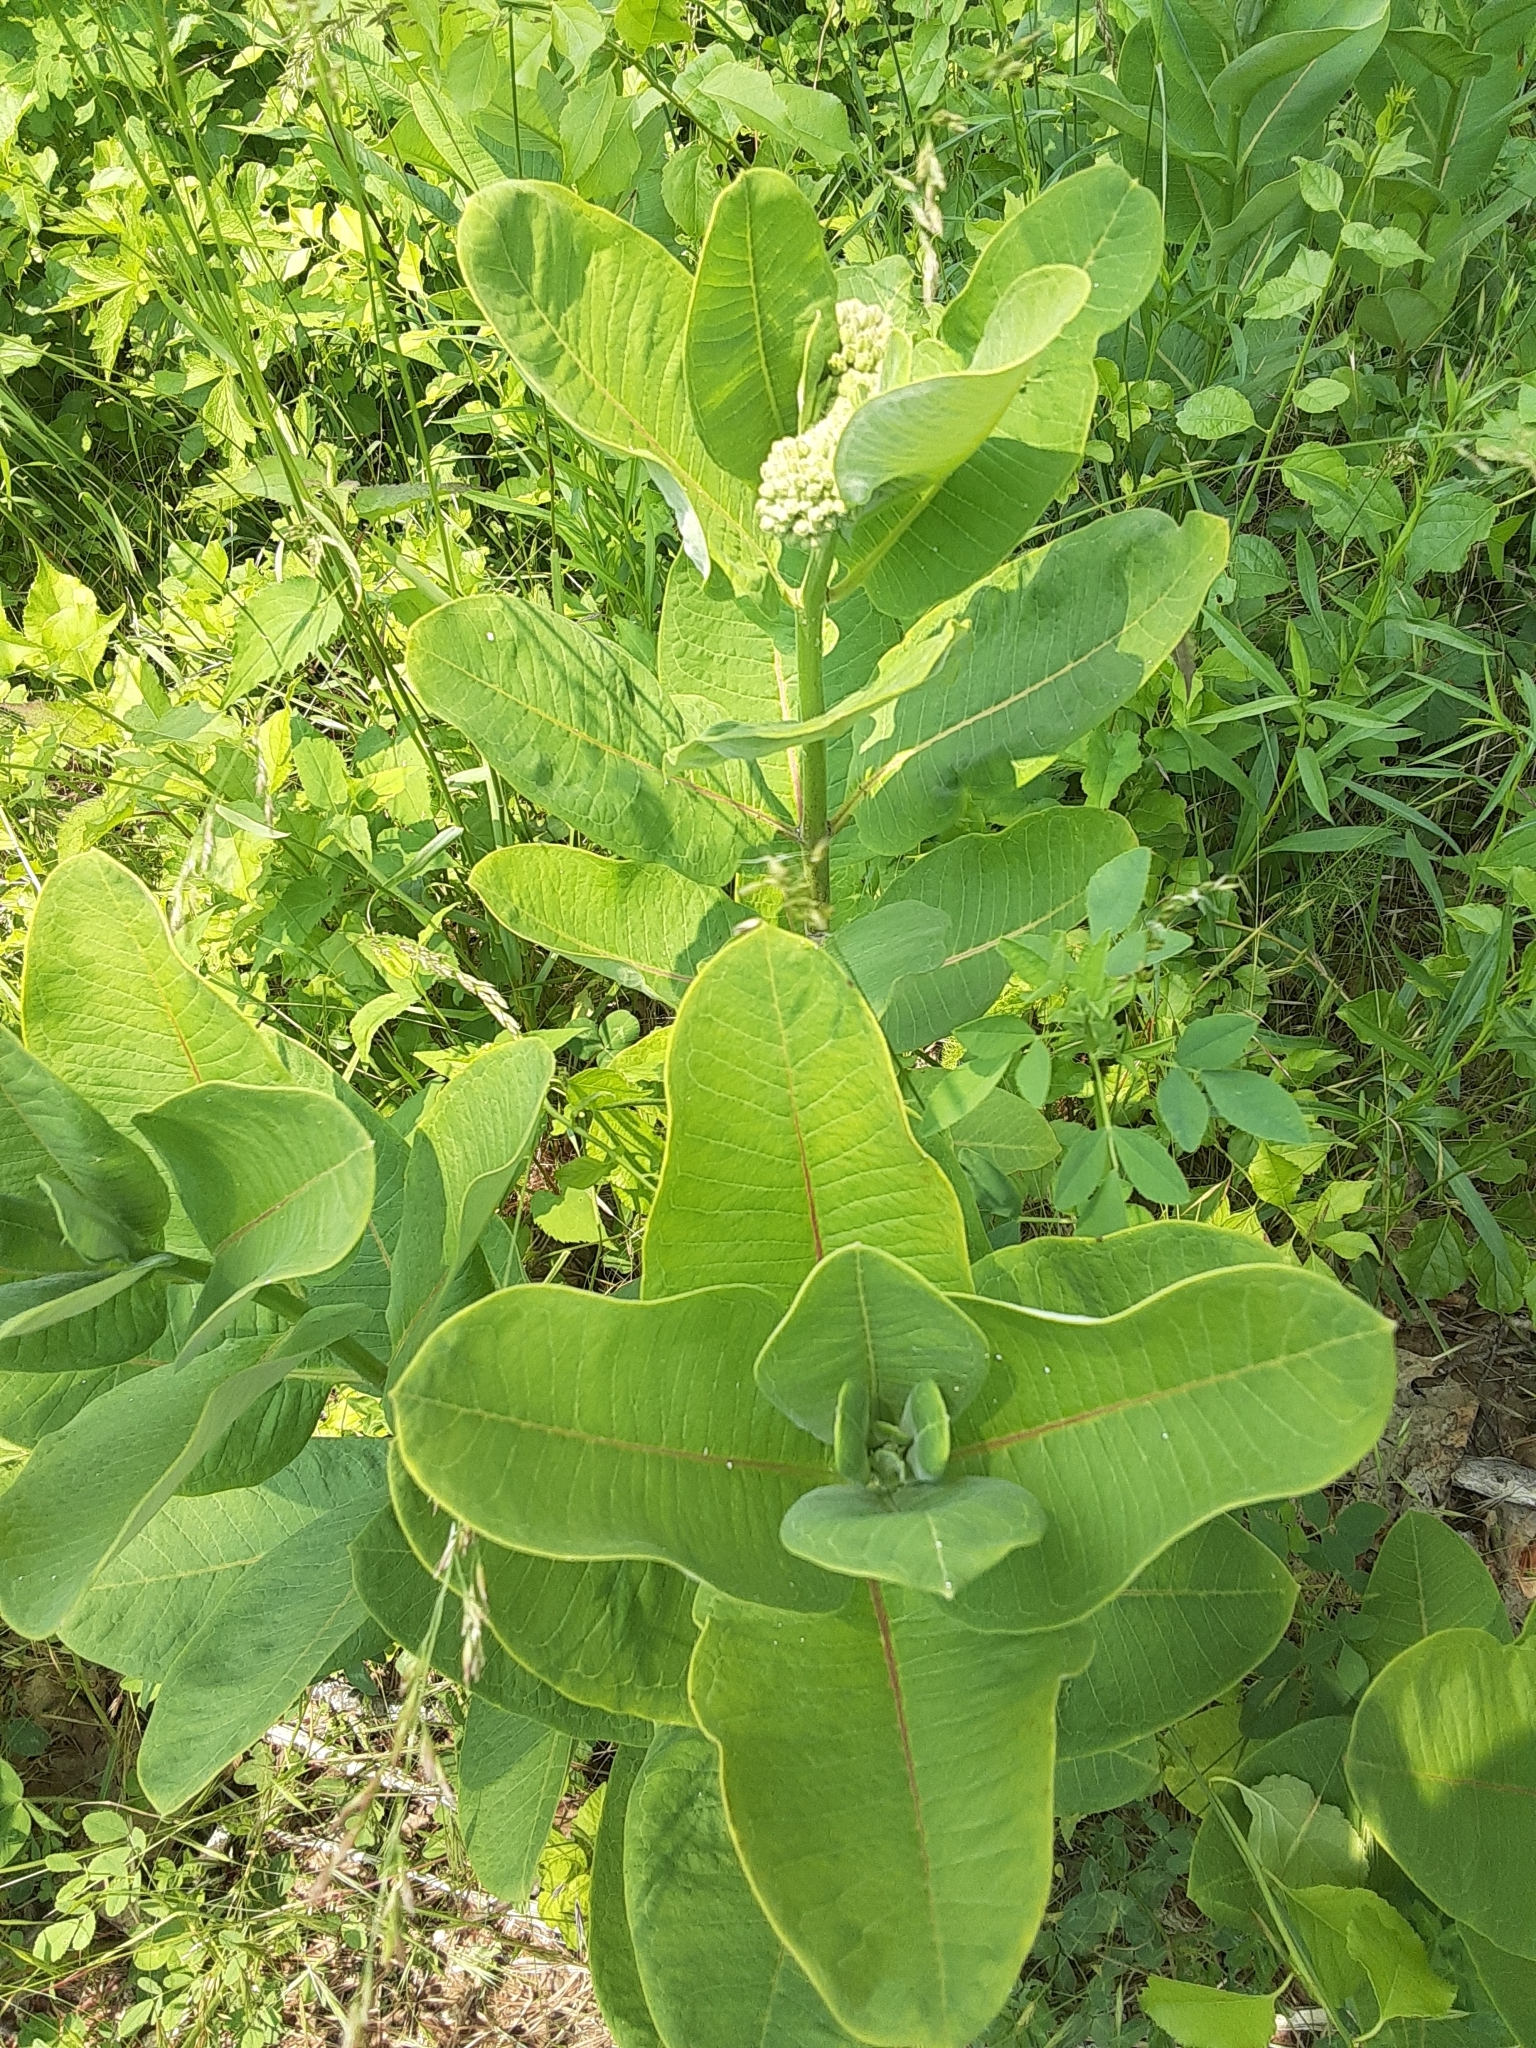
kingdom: Plantae
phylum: Tracheophyta
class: Magnoliopsida
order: Gentianales
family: Apocynaceae
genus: Asclepias
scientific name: Asclepias syriaca
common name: Common milkweed
